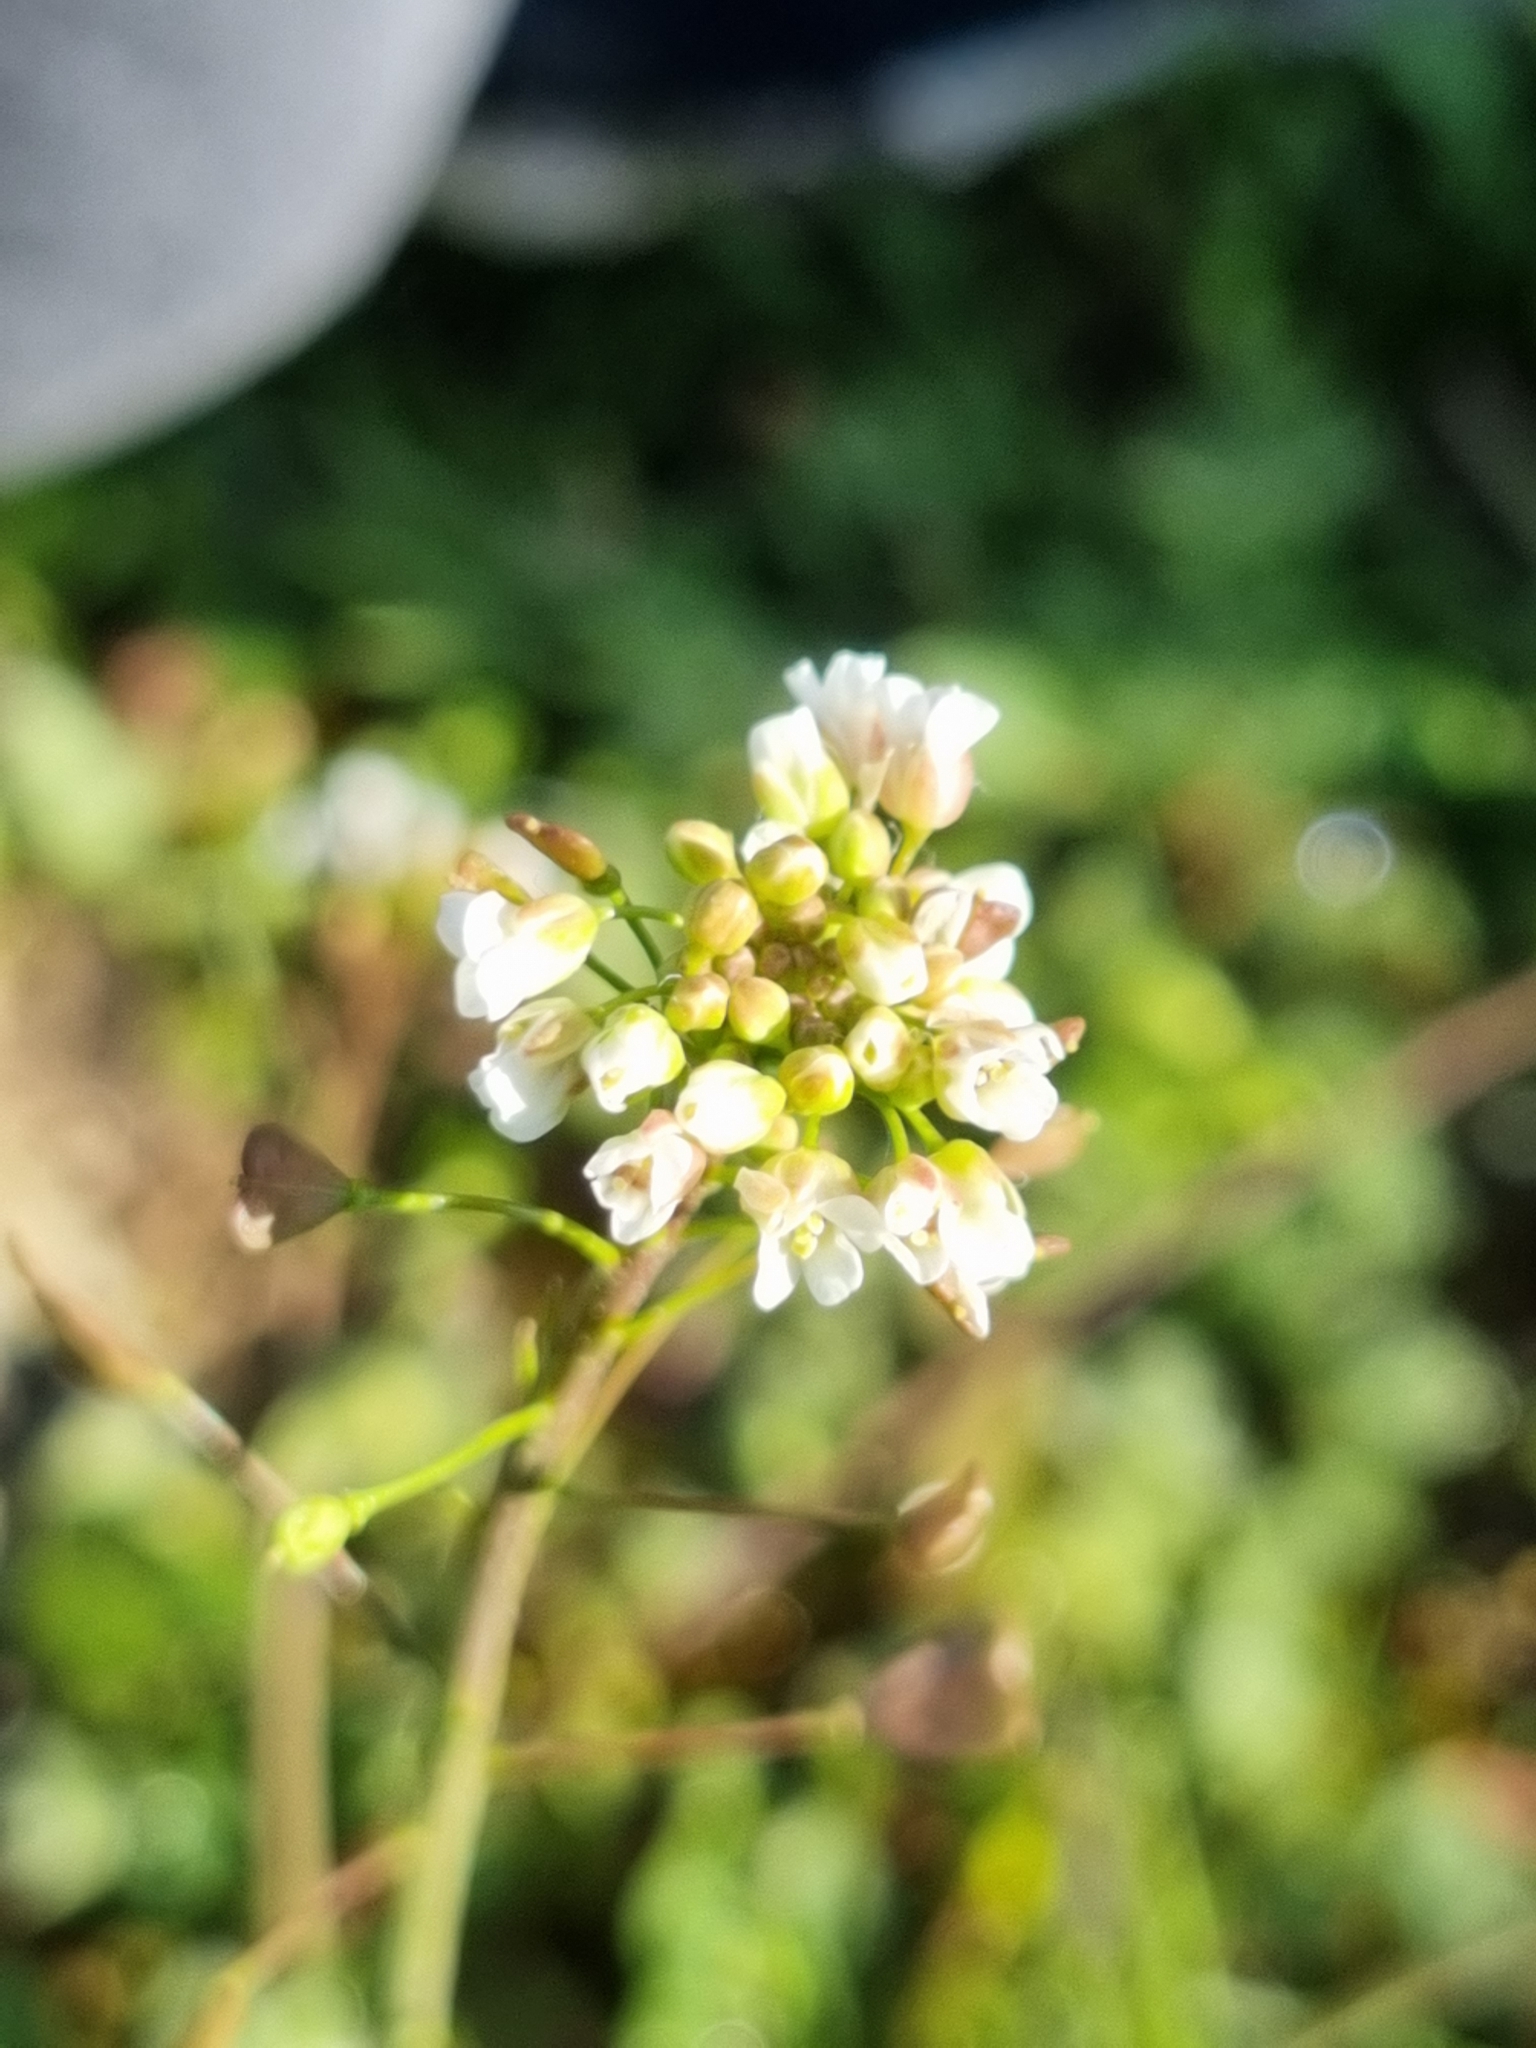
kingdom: Plantae
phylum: Tracheophyta
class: Magnoliopsida
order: Brassicales
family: Brassicaceae
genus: Capsella
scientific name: Capsella bursa-pastoris
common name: Shepherd's purse
